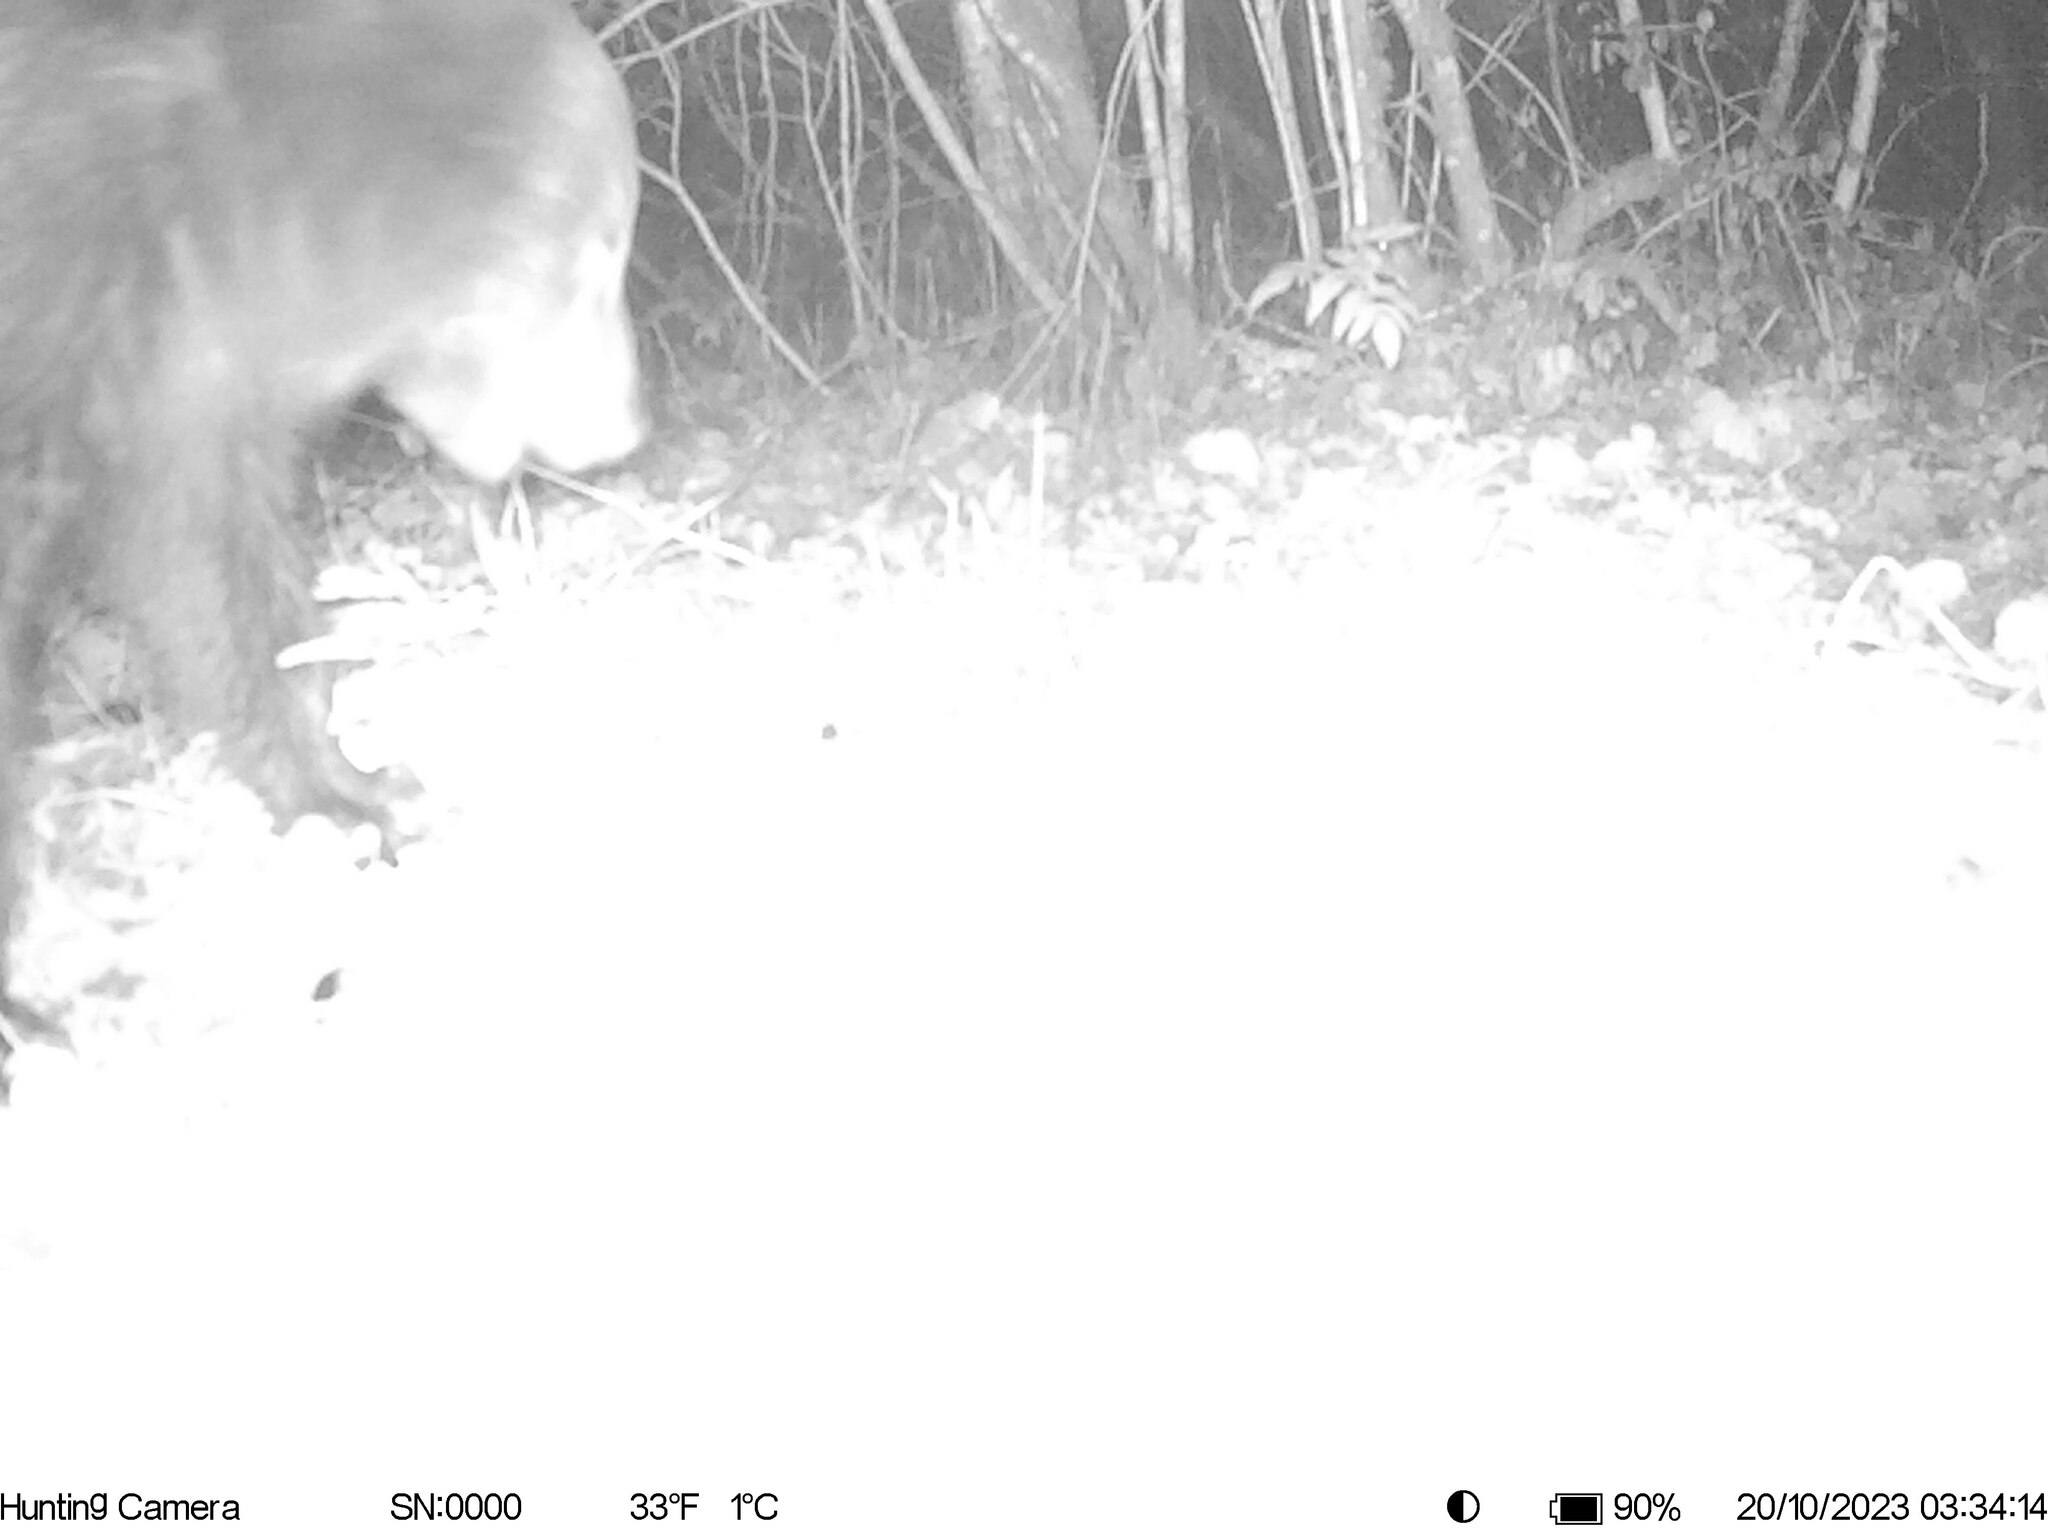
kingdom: Animalia
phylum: Chordata
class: Mammalia
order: Carnivora
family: Ursidae
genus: Ursus
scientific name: Ursus arctos
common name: Brown bear
